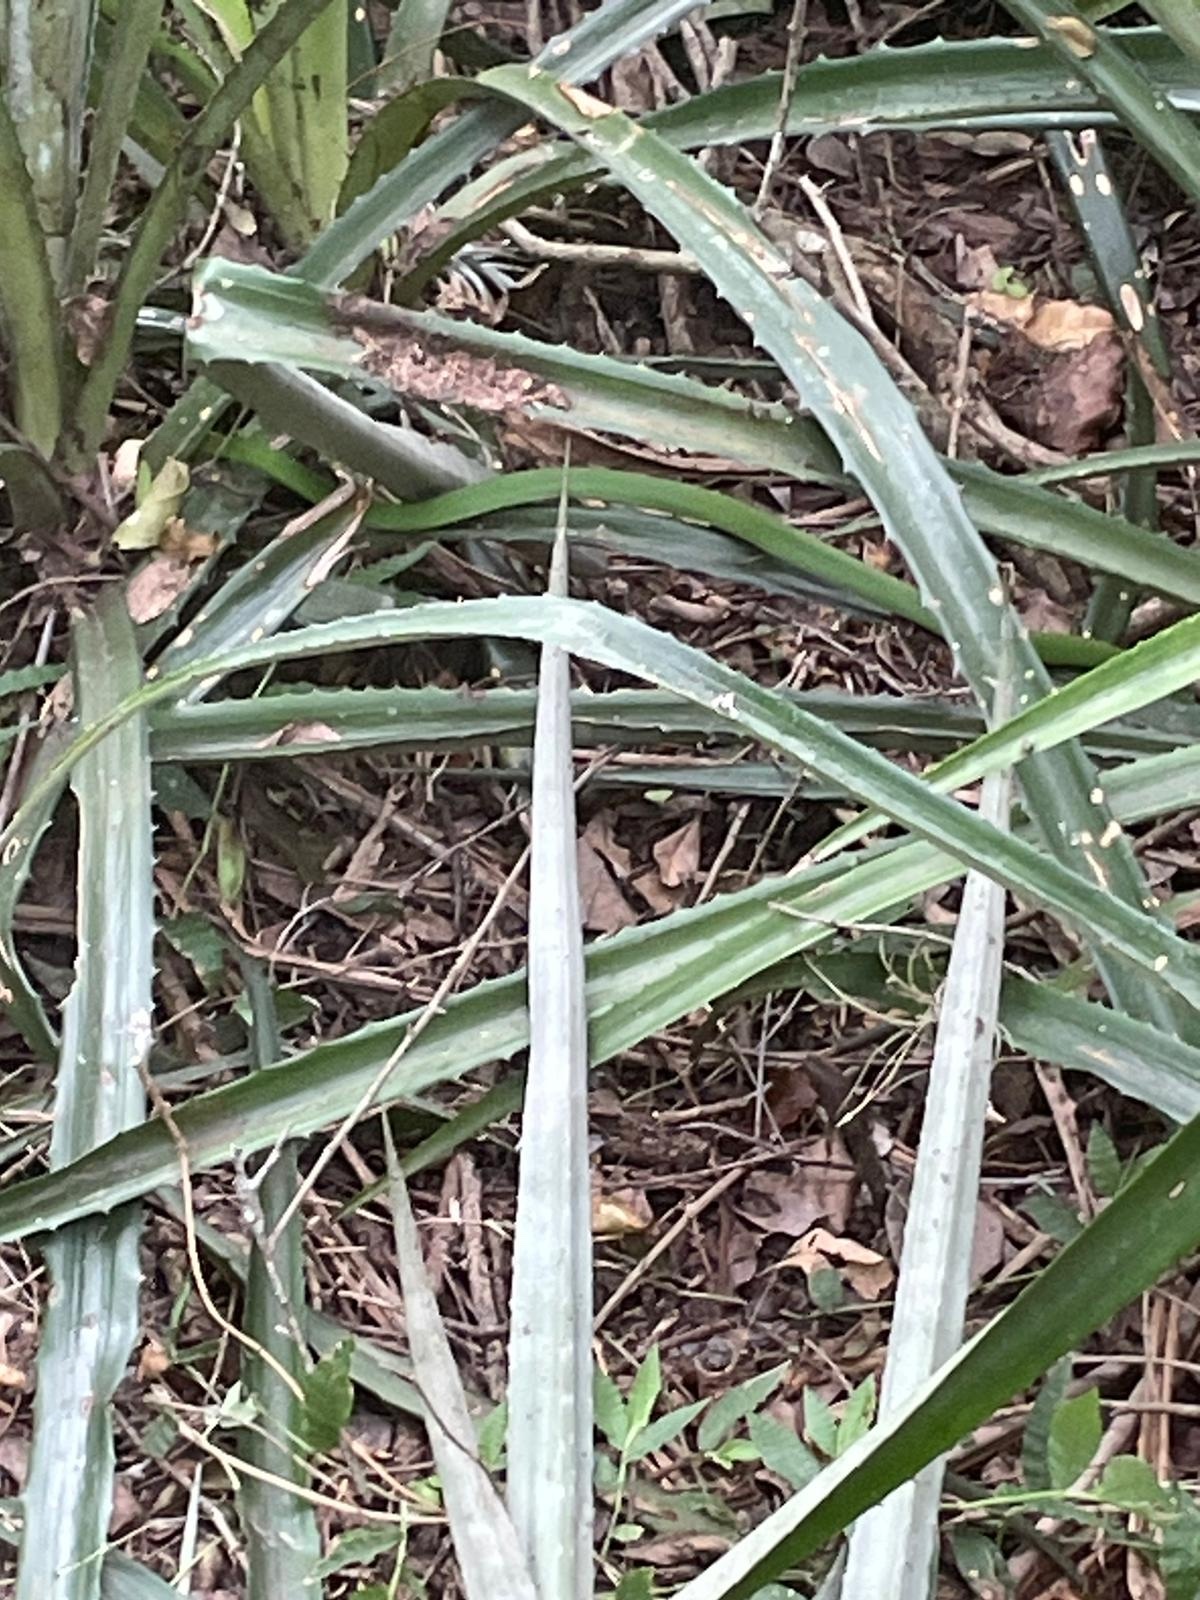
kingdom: Animalia
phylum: Chordata
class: Squamata
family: Colubridae
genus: Philodryas
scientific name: Philodryas olfersii
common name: Lichtenstein's green racer
